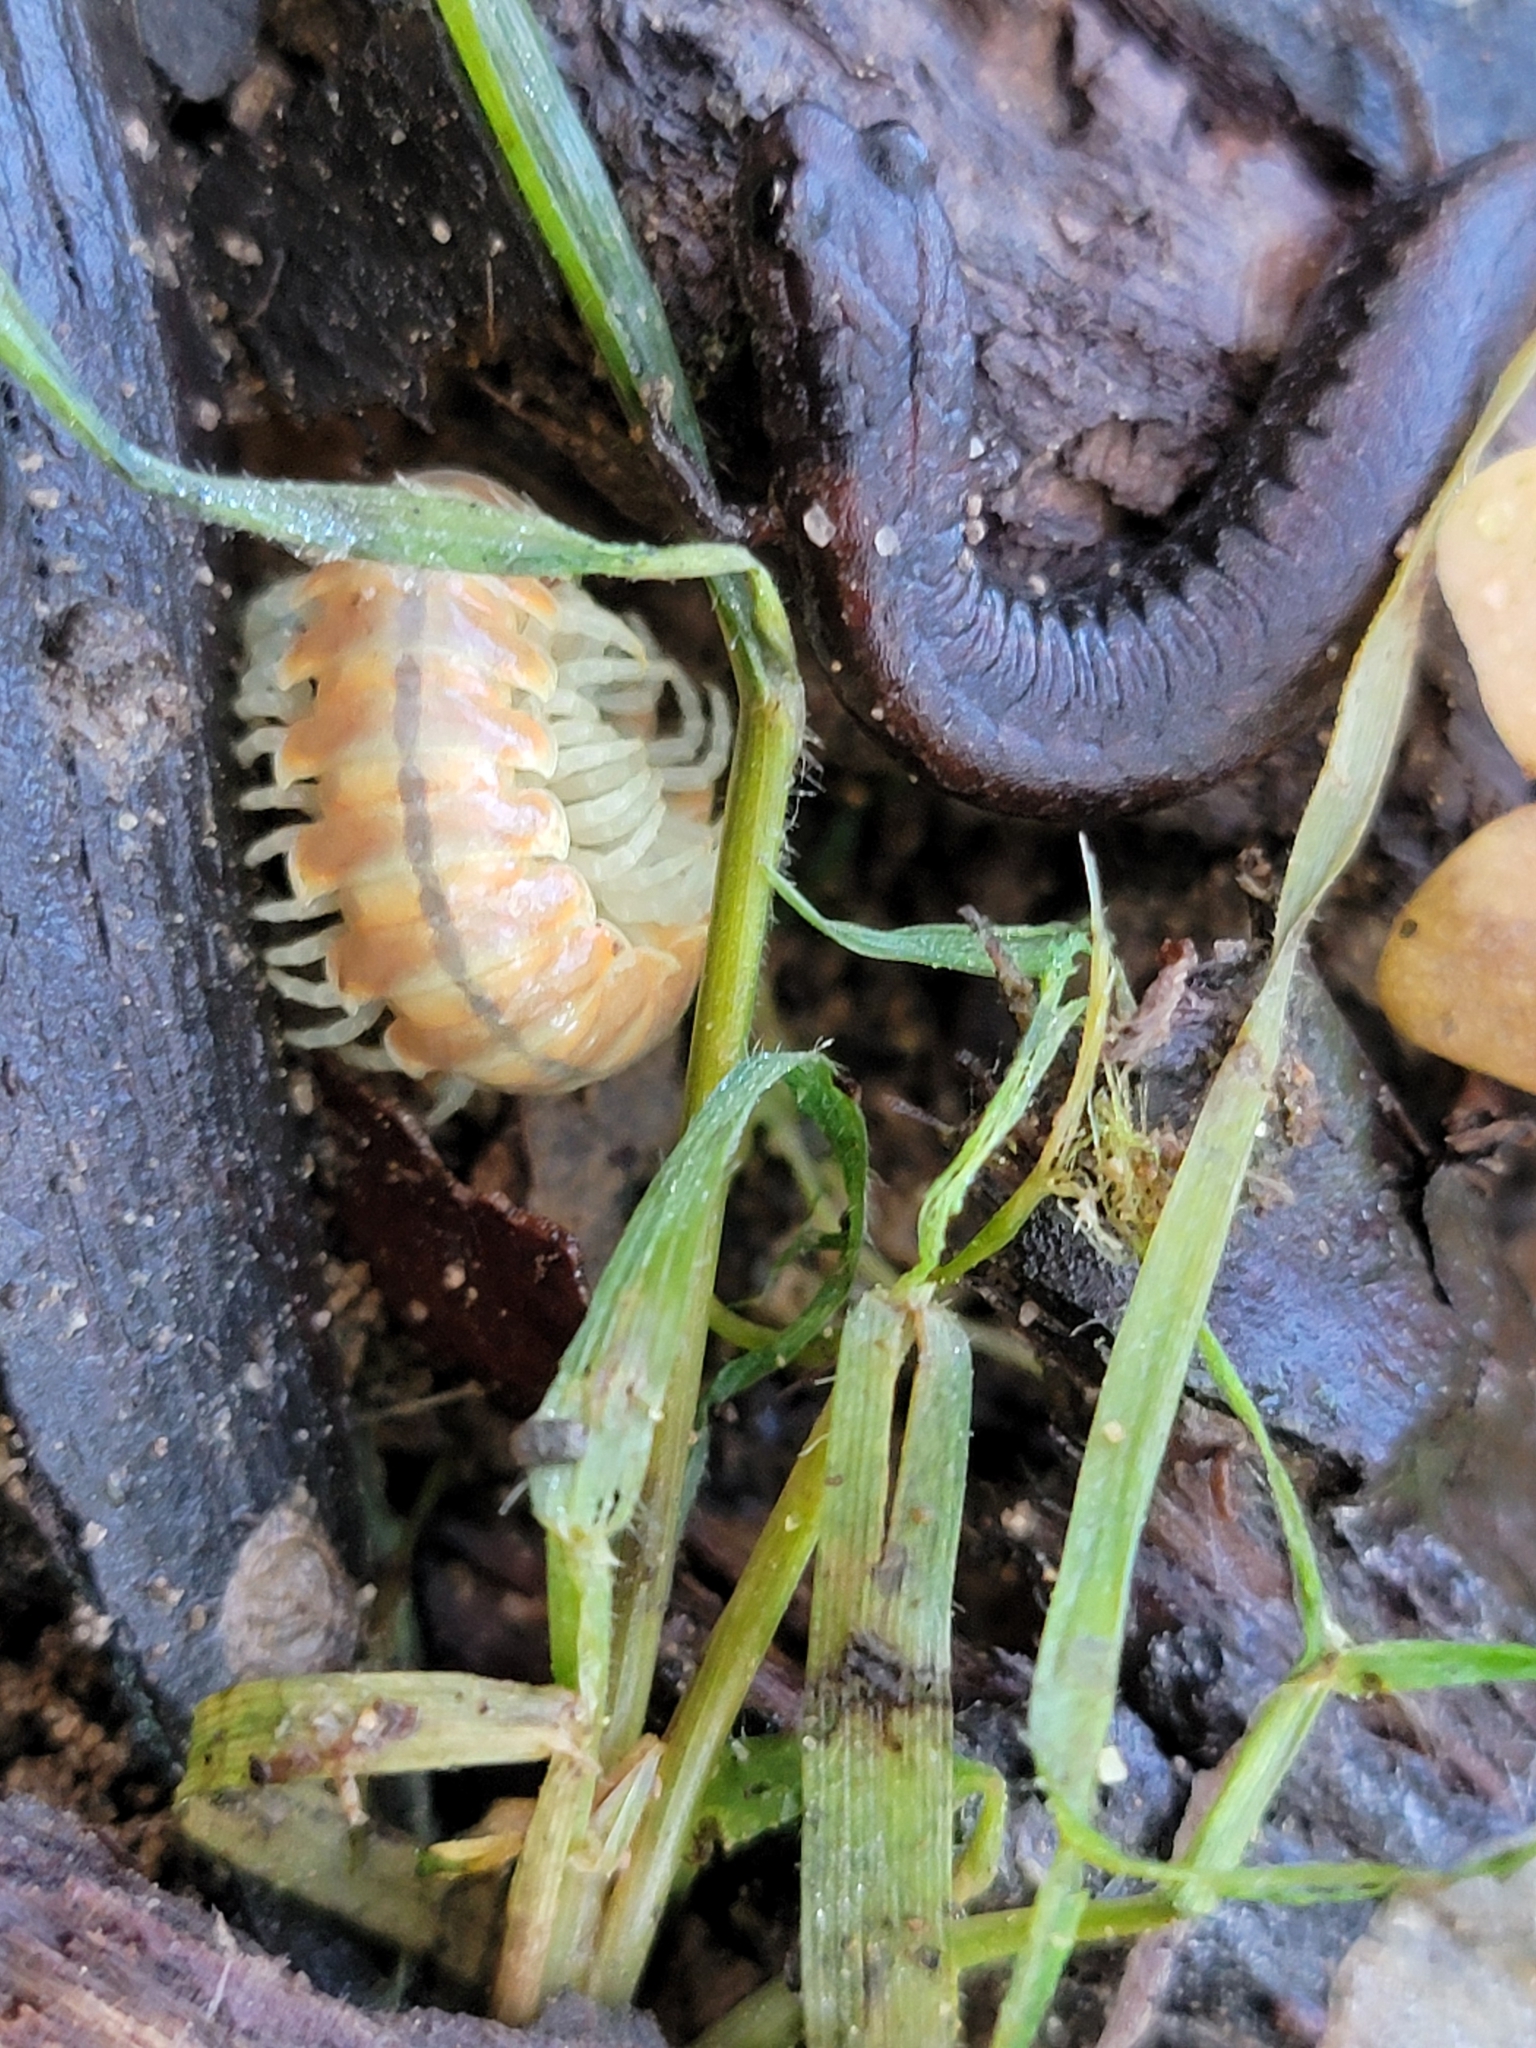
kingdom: Animalia
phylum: Arthropoda
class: Diplopoda
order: Polydesmida
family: Xystodesmidae
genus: Xystocheir
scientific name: Xystocheir dissecta
